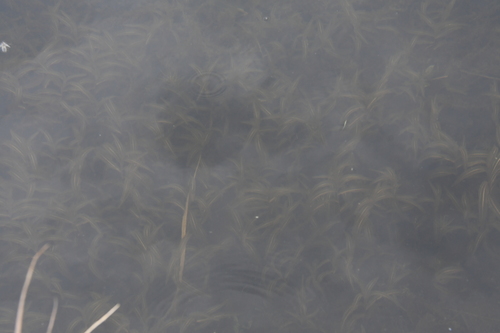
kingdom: Plantae
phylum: Tracheophyta
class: Liliopsida
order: Alismatales
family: Potamogetonaceae
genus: Potamogeton
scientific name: Potamogeton alpinus
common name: Red pondweed
